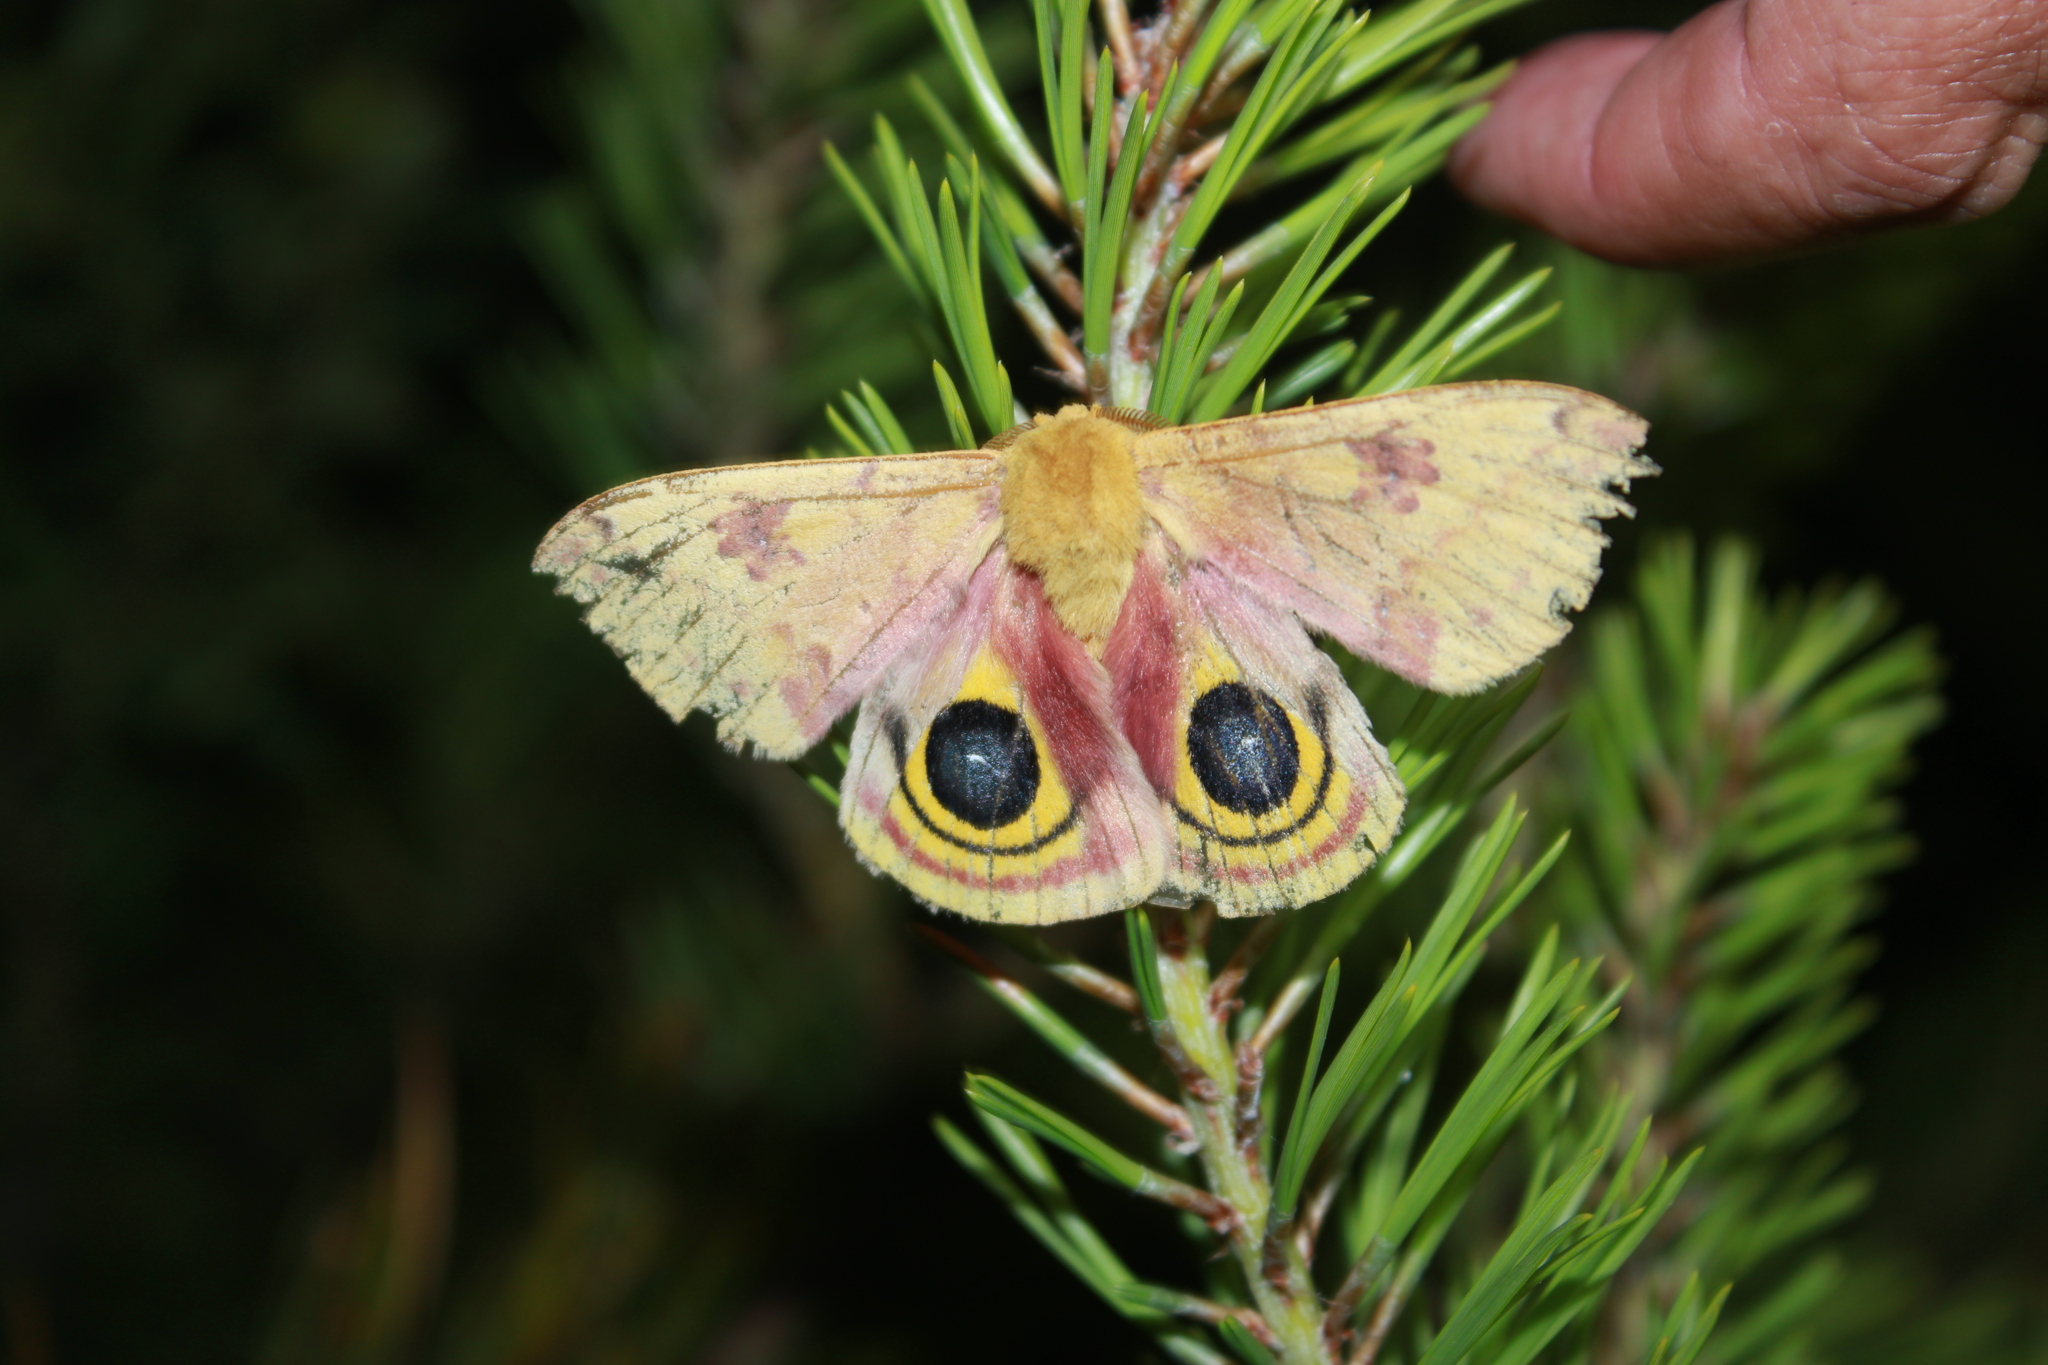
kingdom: Animalia
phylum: Arthropoda
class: Insecta
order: Lepidoptera
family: Saturniidae
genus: Automeris
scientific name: Automeris io
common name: Io moth
